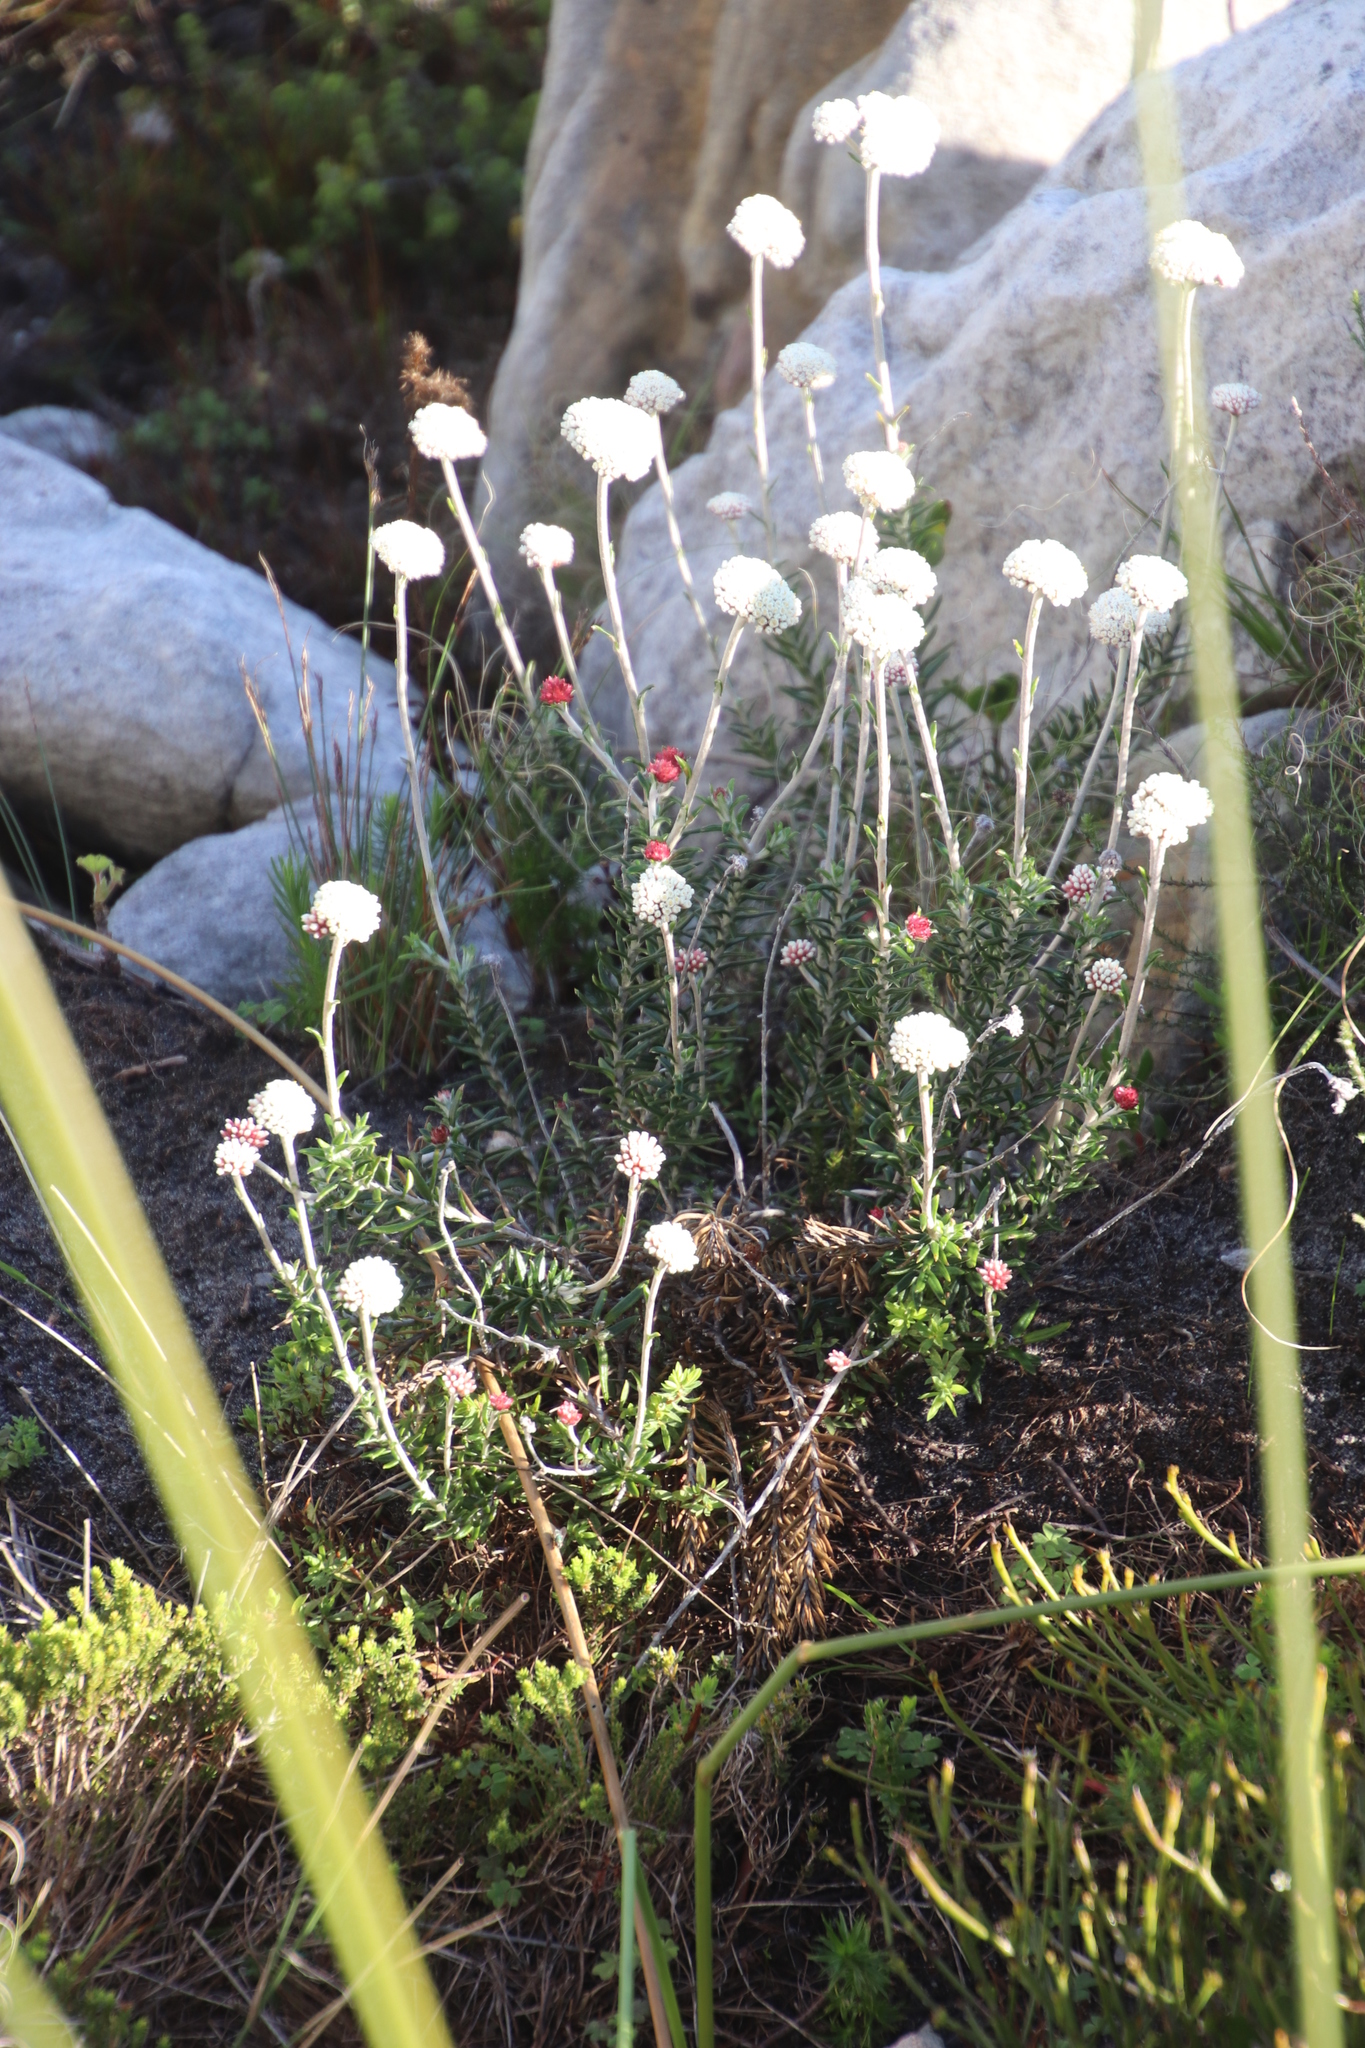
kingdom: Plantae
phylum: Tracheophyta
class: Magnoliopsida
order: Asterales
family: Asteraceae
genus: Anaxeton
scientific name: Anaxeton laeve
